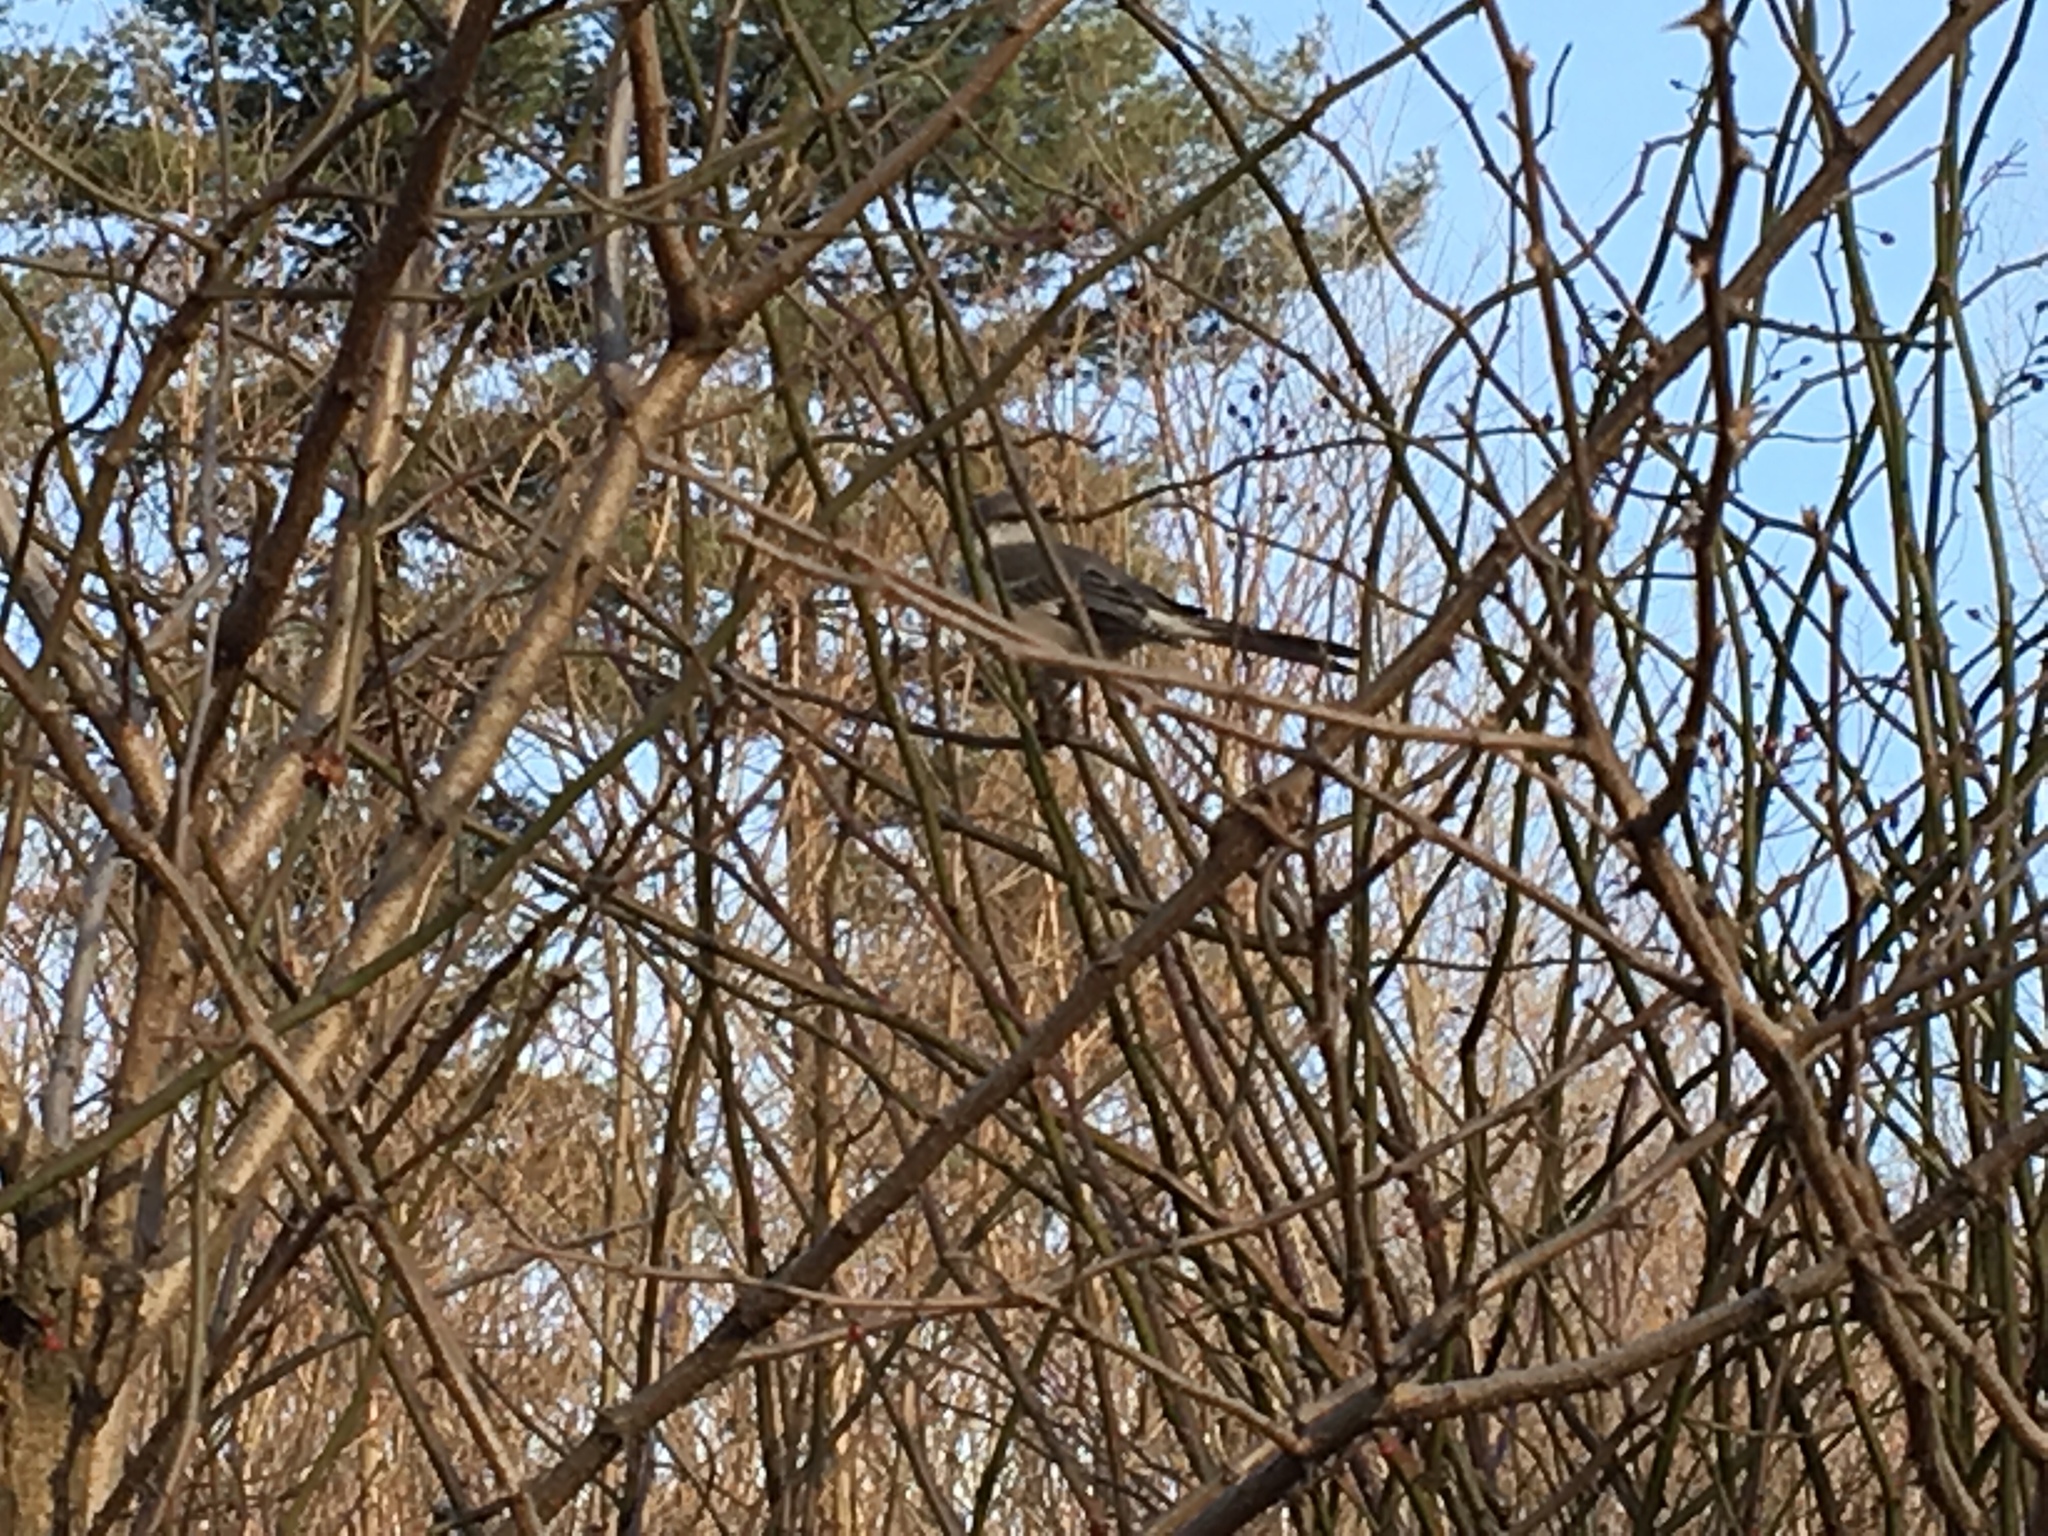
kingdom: Animalia
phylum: Chordata
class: Aves
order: Passeriformes
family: Mimidae
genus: Mimus
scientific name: Mimus polyglottos
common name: Northern mockingbird
